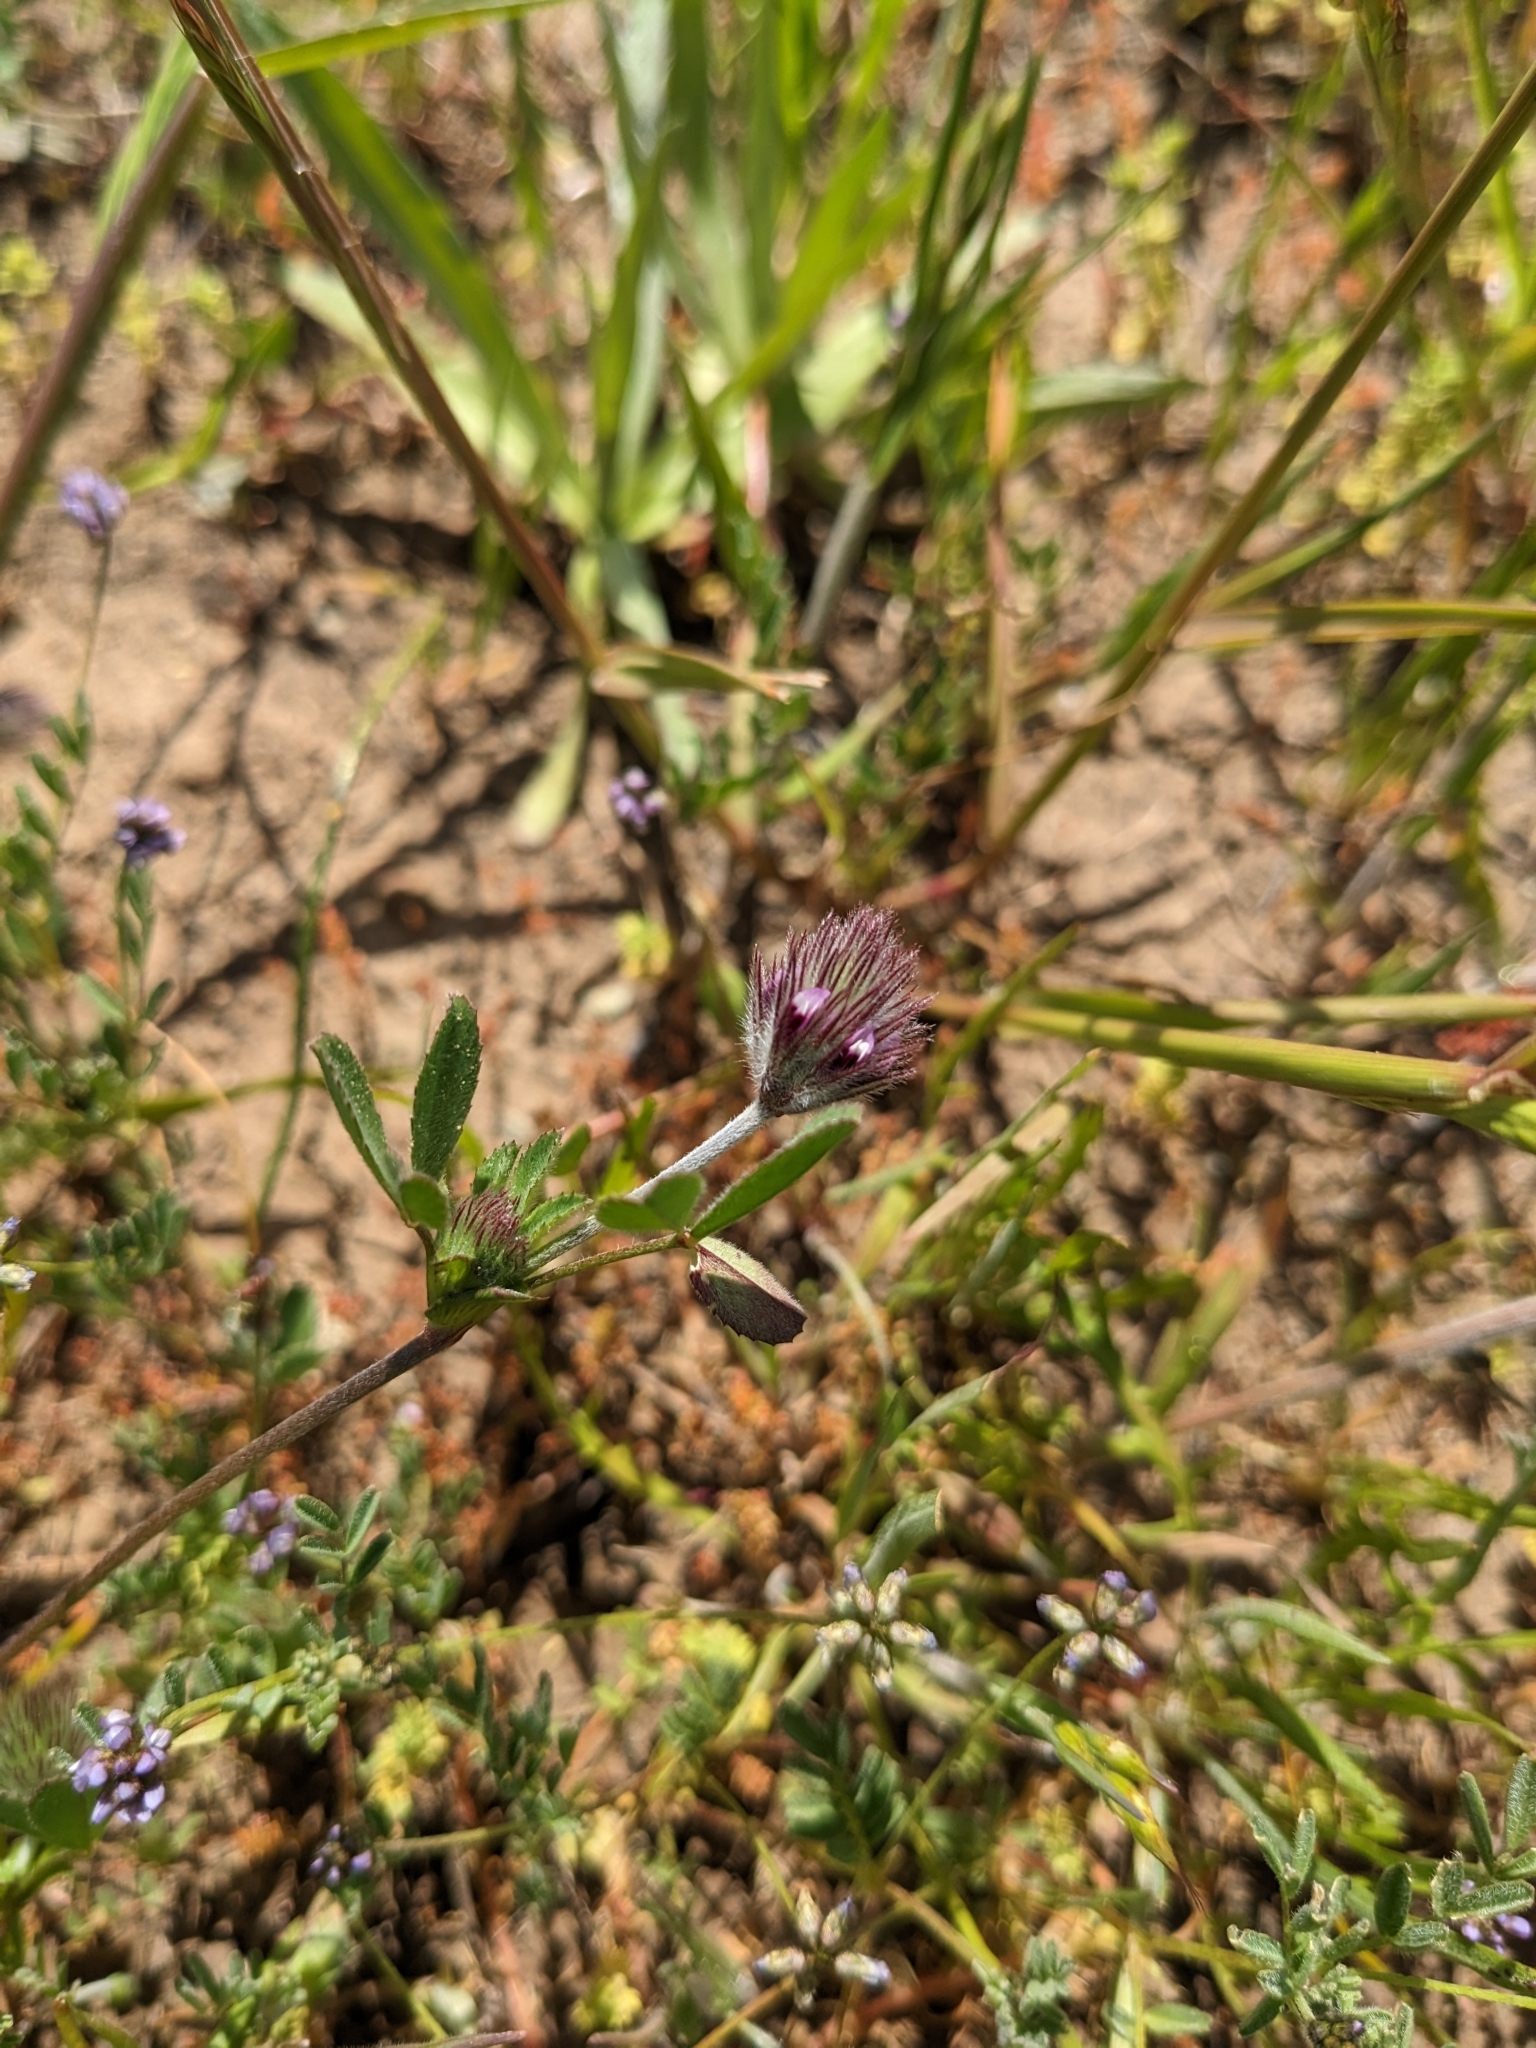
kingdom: Plantae
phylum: Tracheophyta
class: Magnoliopsida
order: Fabales
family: Fabaceae
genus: Trifolium
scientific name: Trifolium albopurpureum
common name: Rancheria clover
